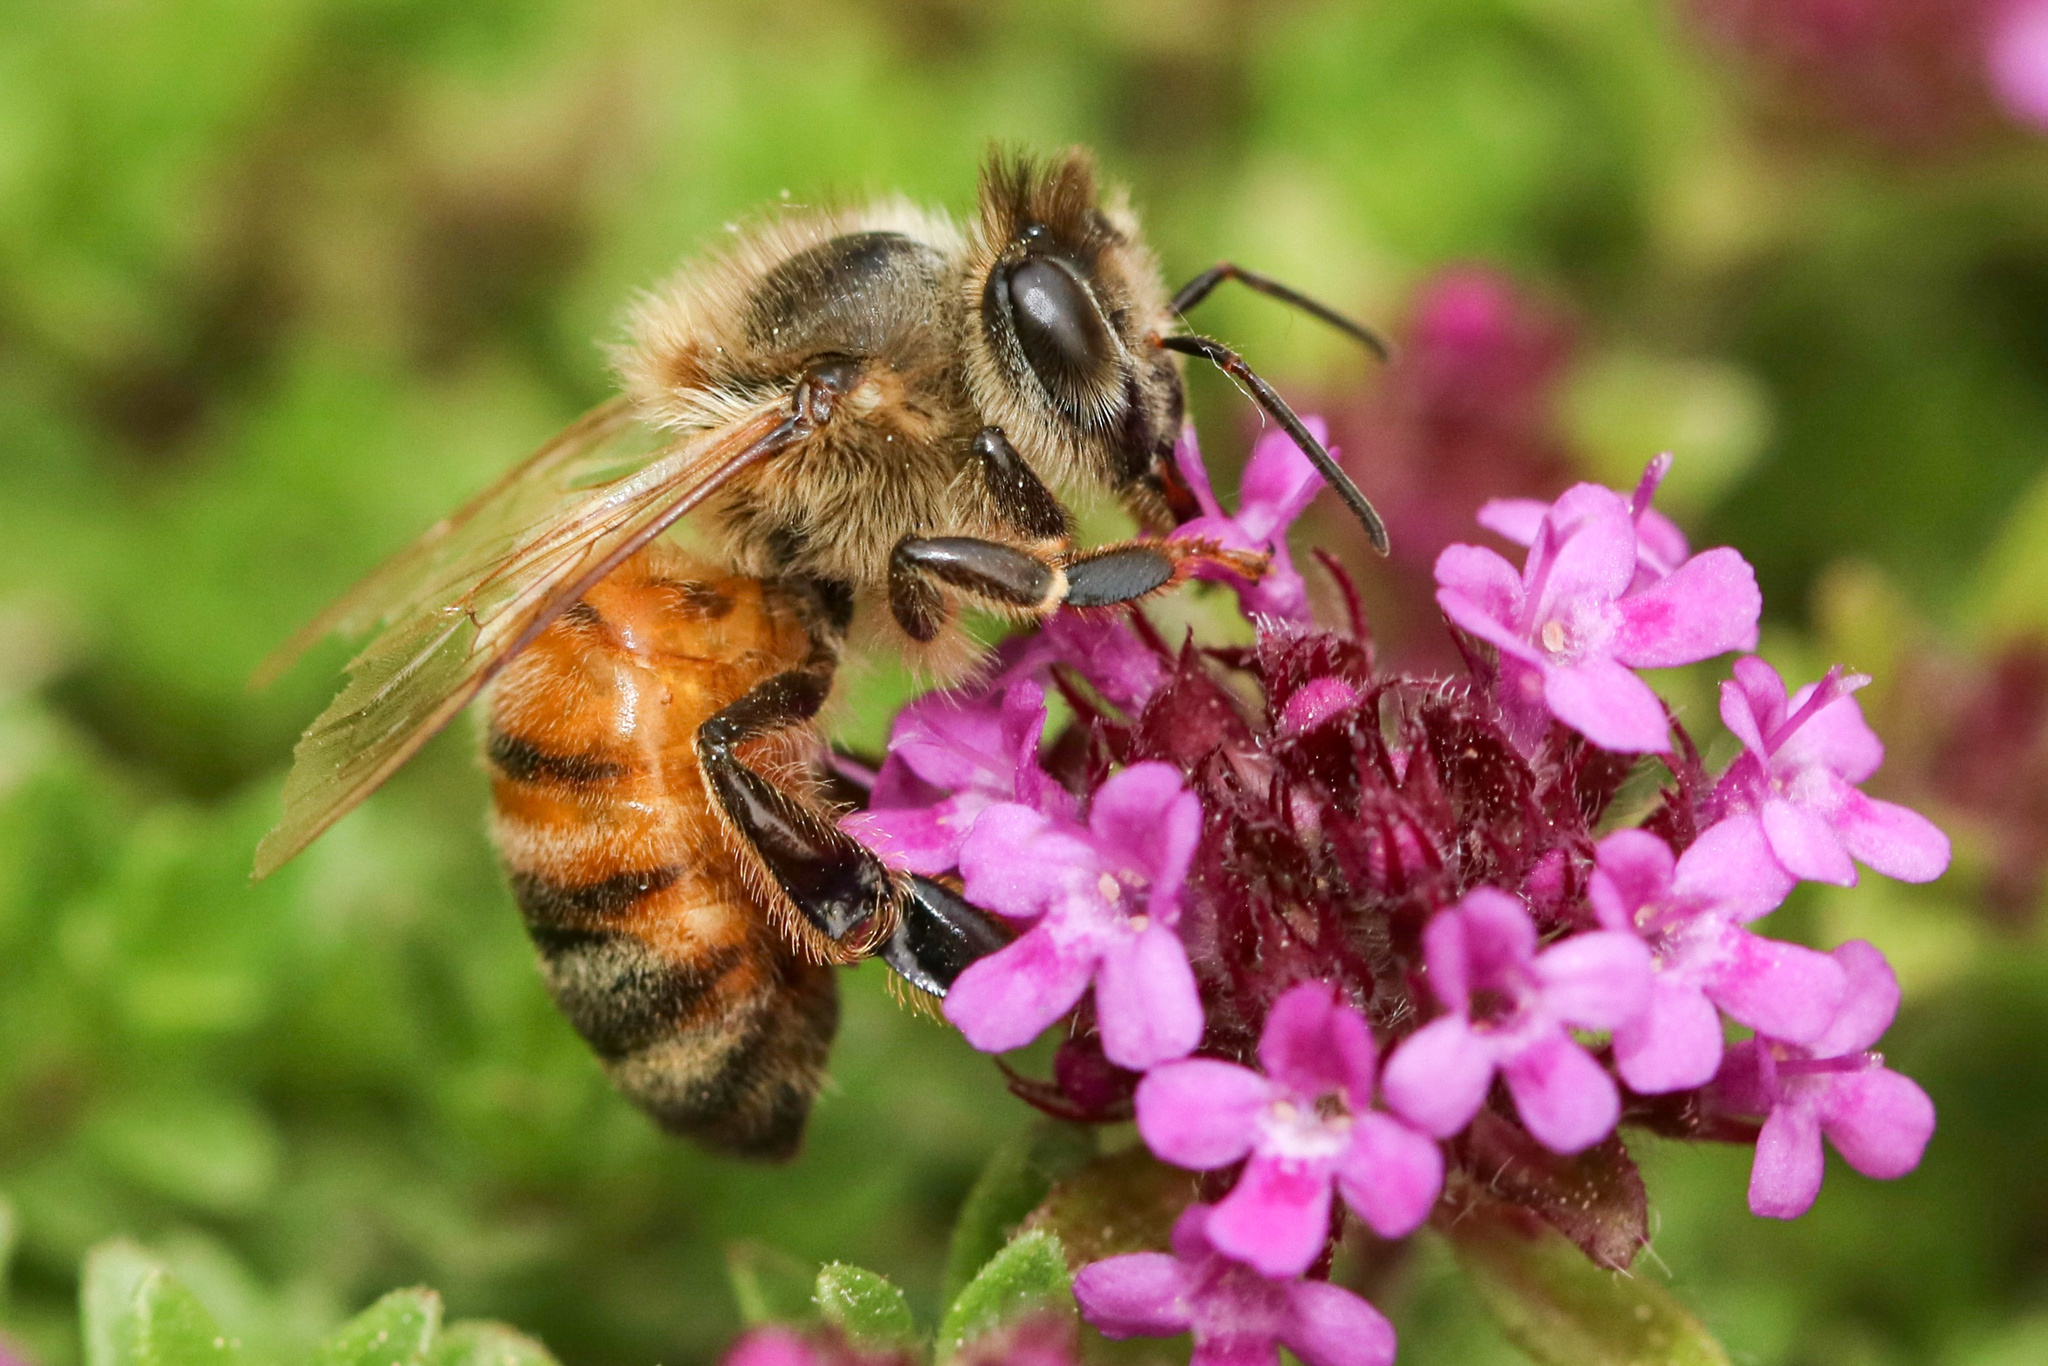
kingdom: Animalia
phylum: Arthropoda
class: Insecta
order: Hymenoptera
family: Apidae
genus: Apis
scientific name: Apis mellifera
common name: Honey bee
